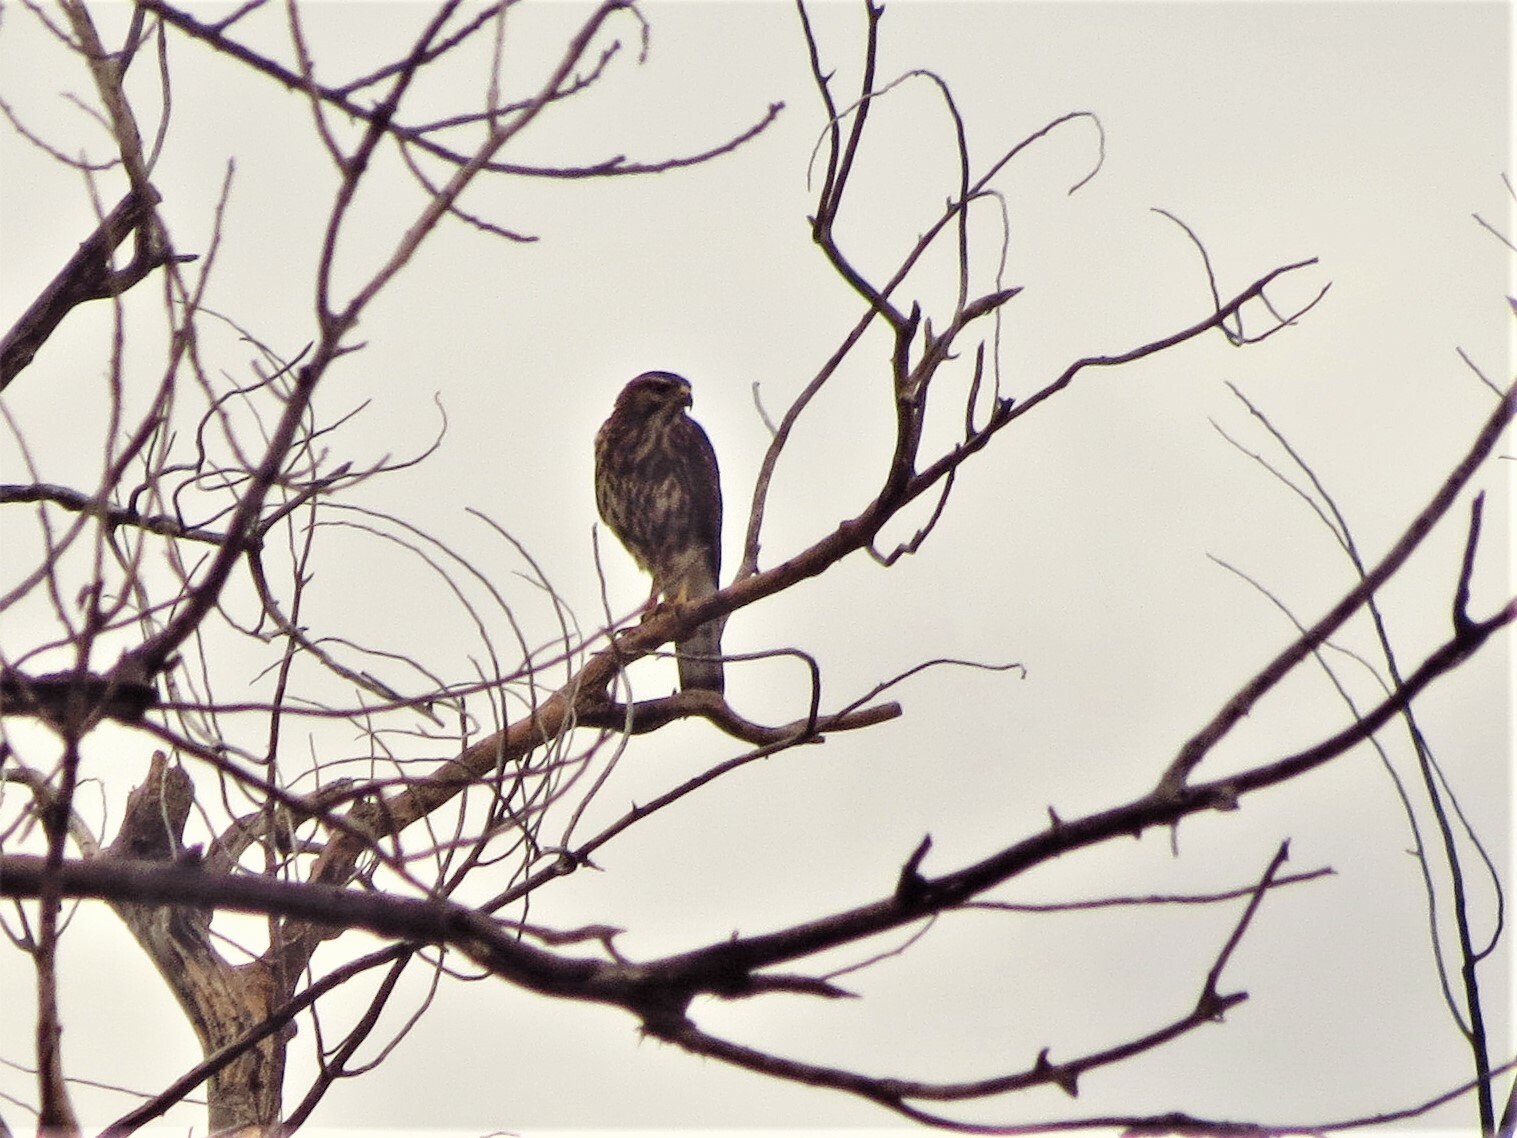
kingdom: Animalia
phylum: Chordata
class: Aves
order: Accipitriformes
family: Accipitridae
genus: Buteo
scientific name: Buteo nitidus
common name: Grey-lined hawk
